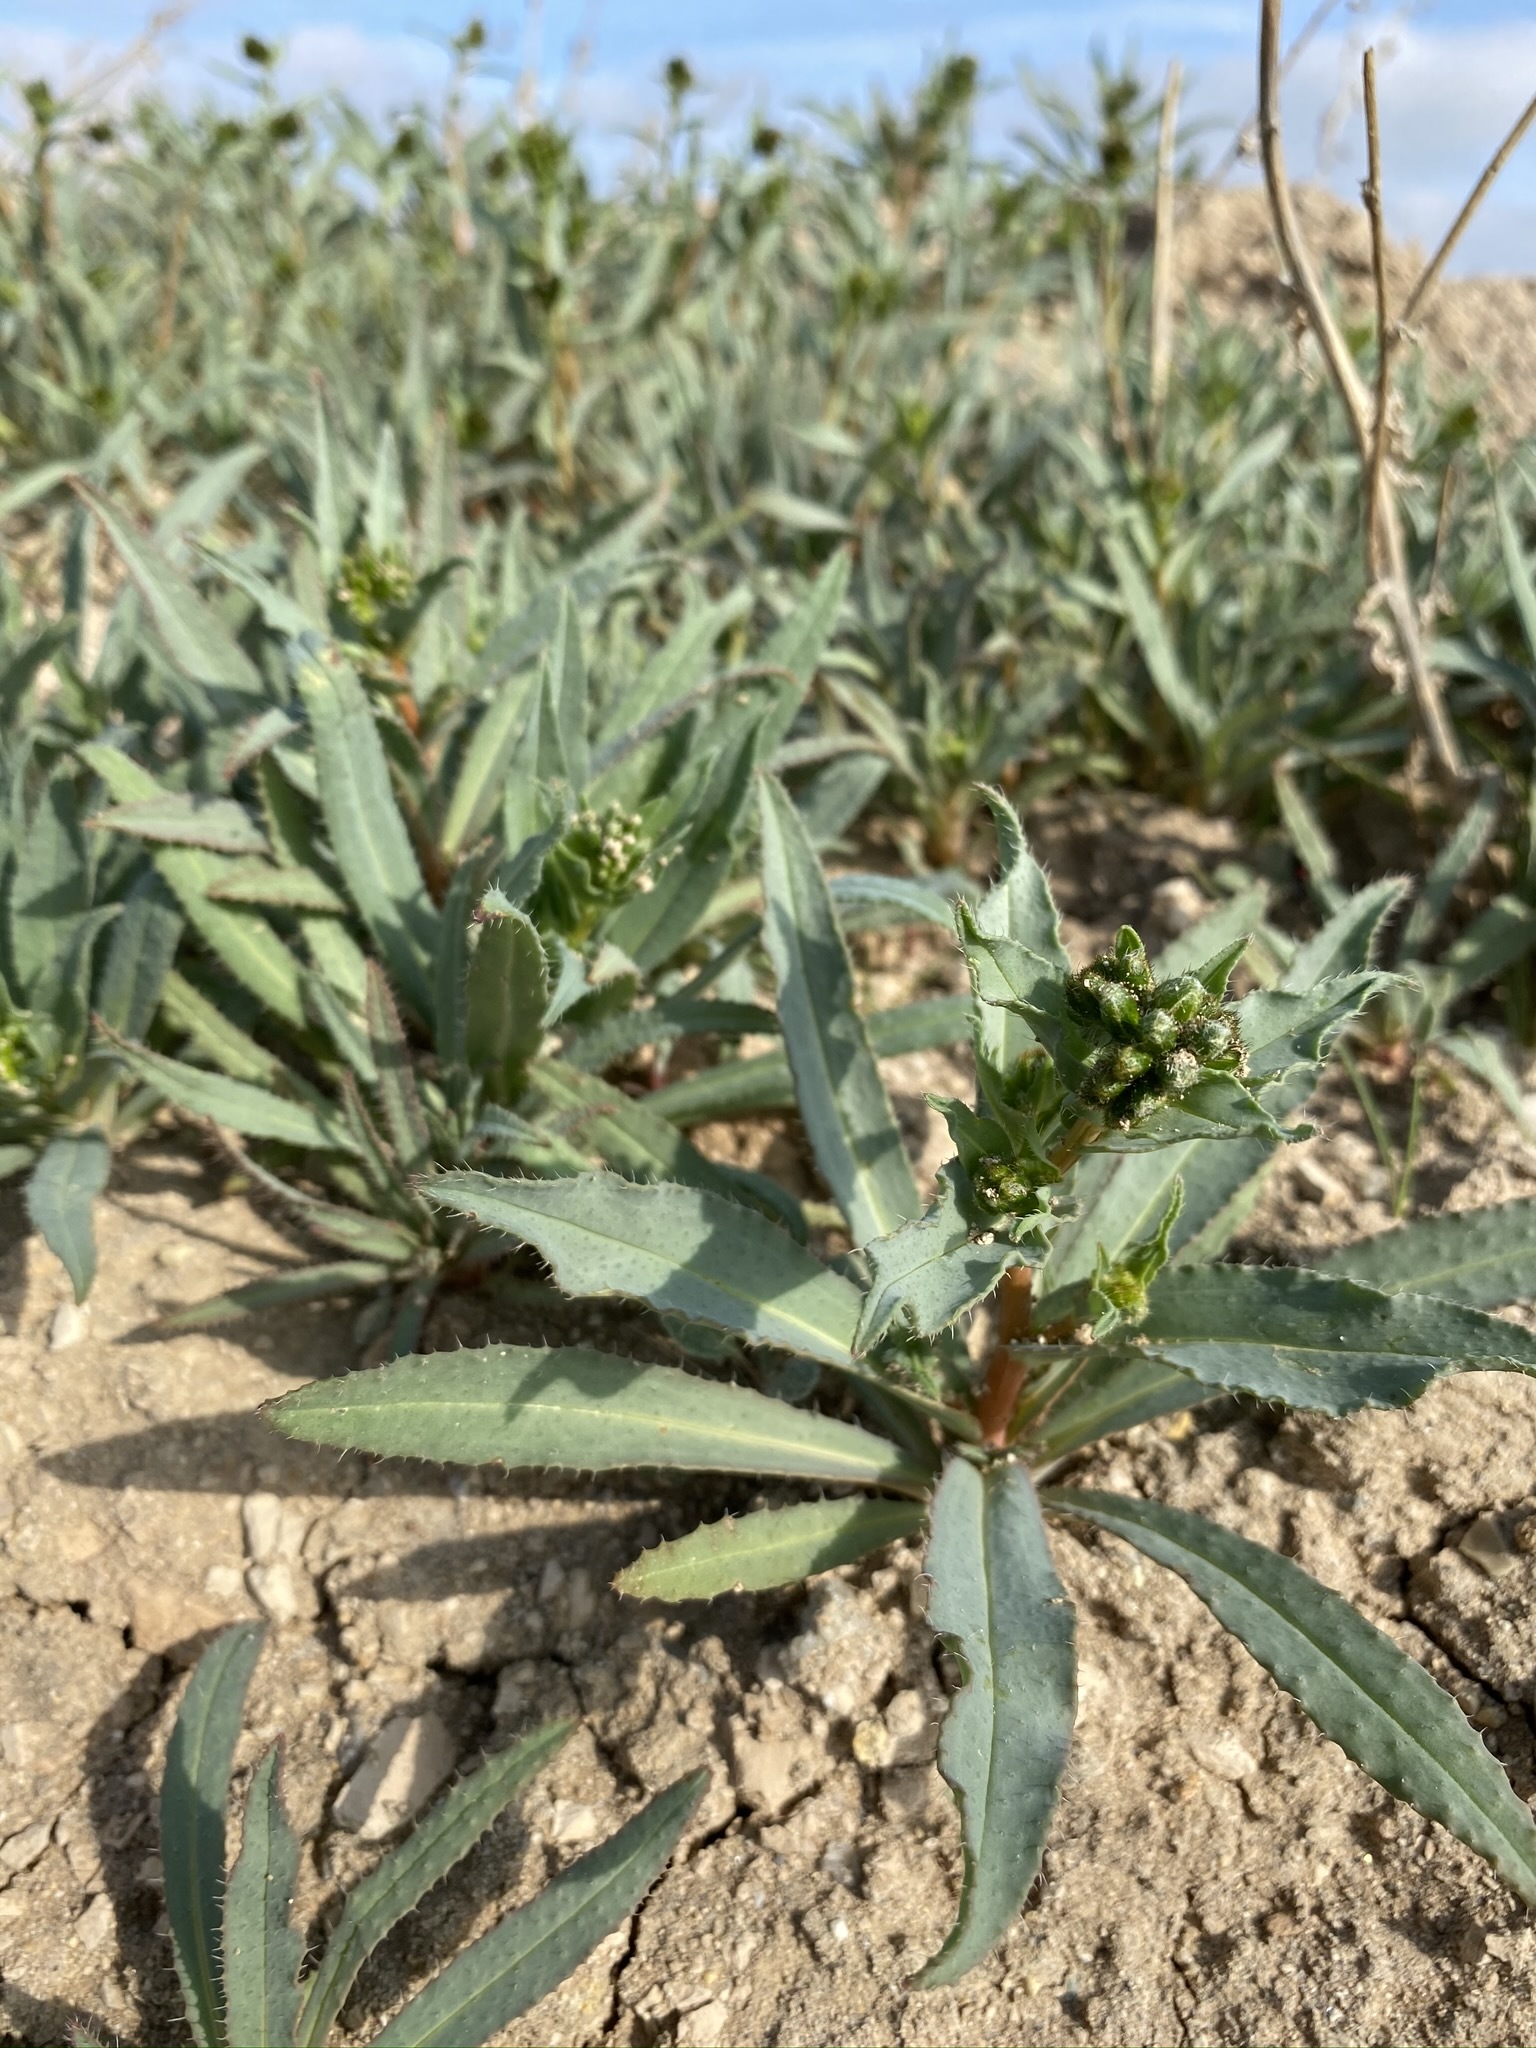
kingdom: Plantae
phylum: Tracheophyta
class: Magnoliopsida
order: Boraginales
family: Boraginaceae
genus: Amsinckia
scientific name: Amsinckia vernicosa
